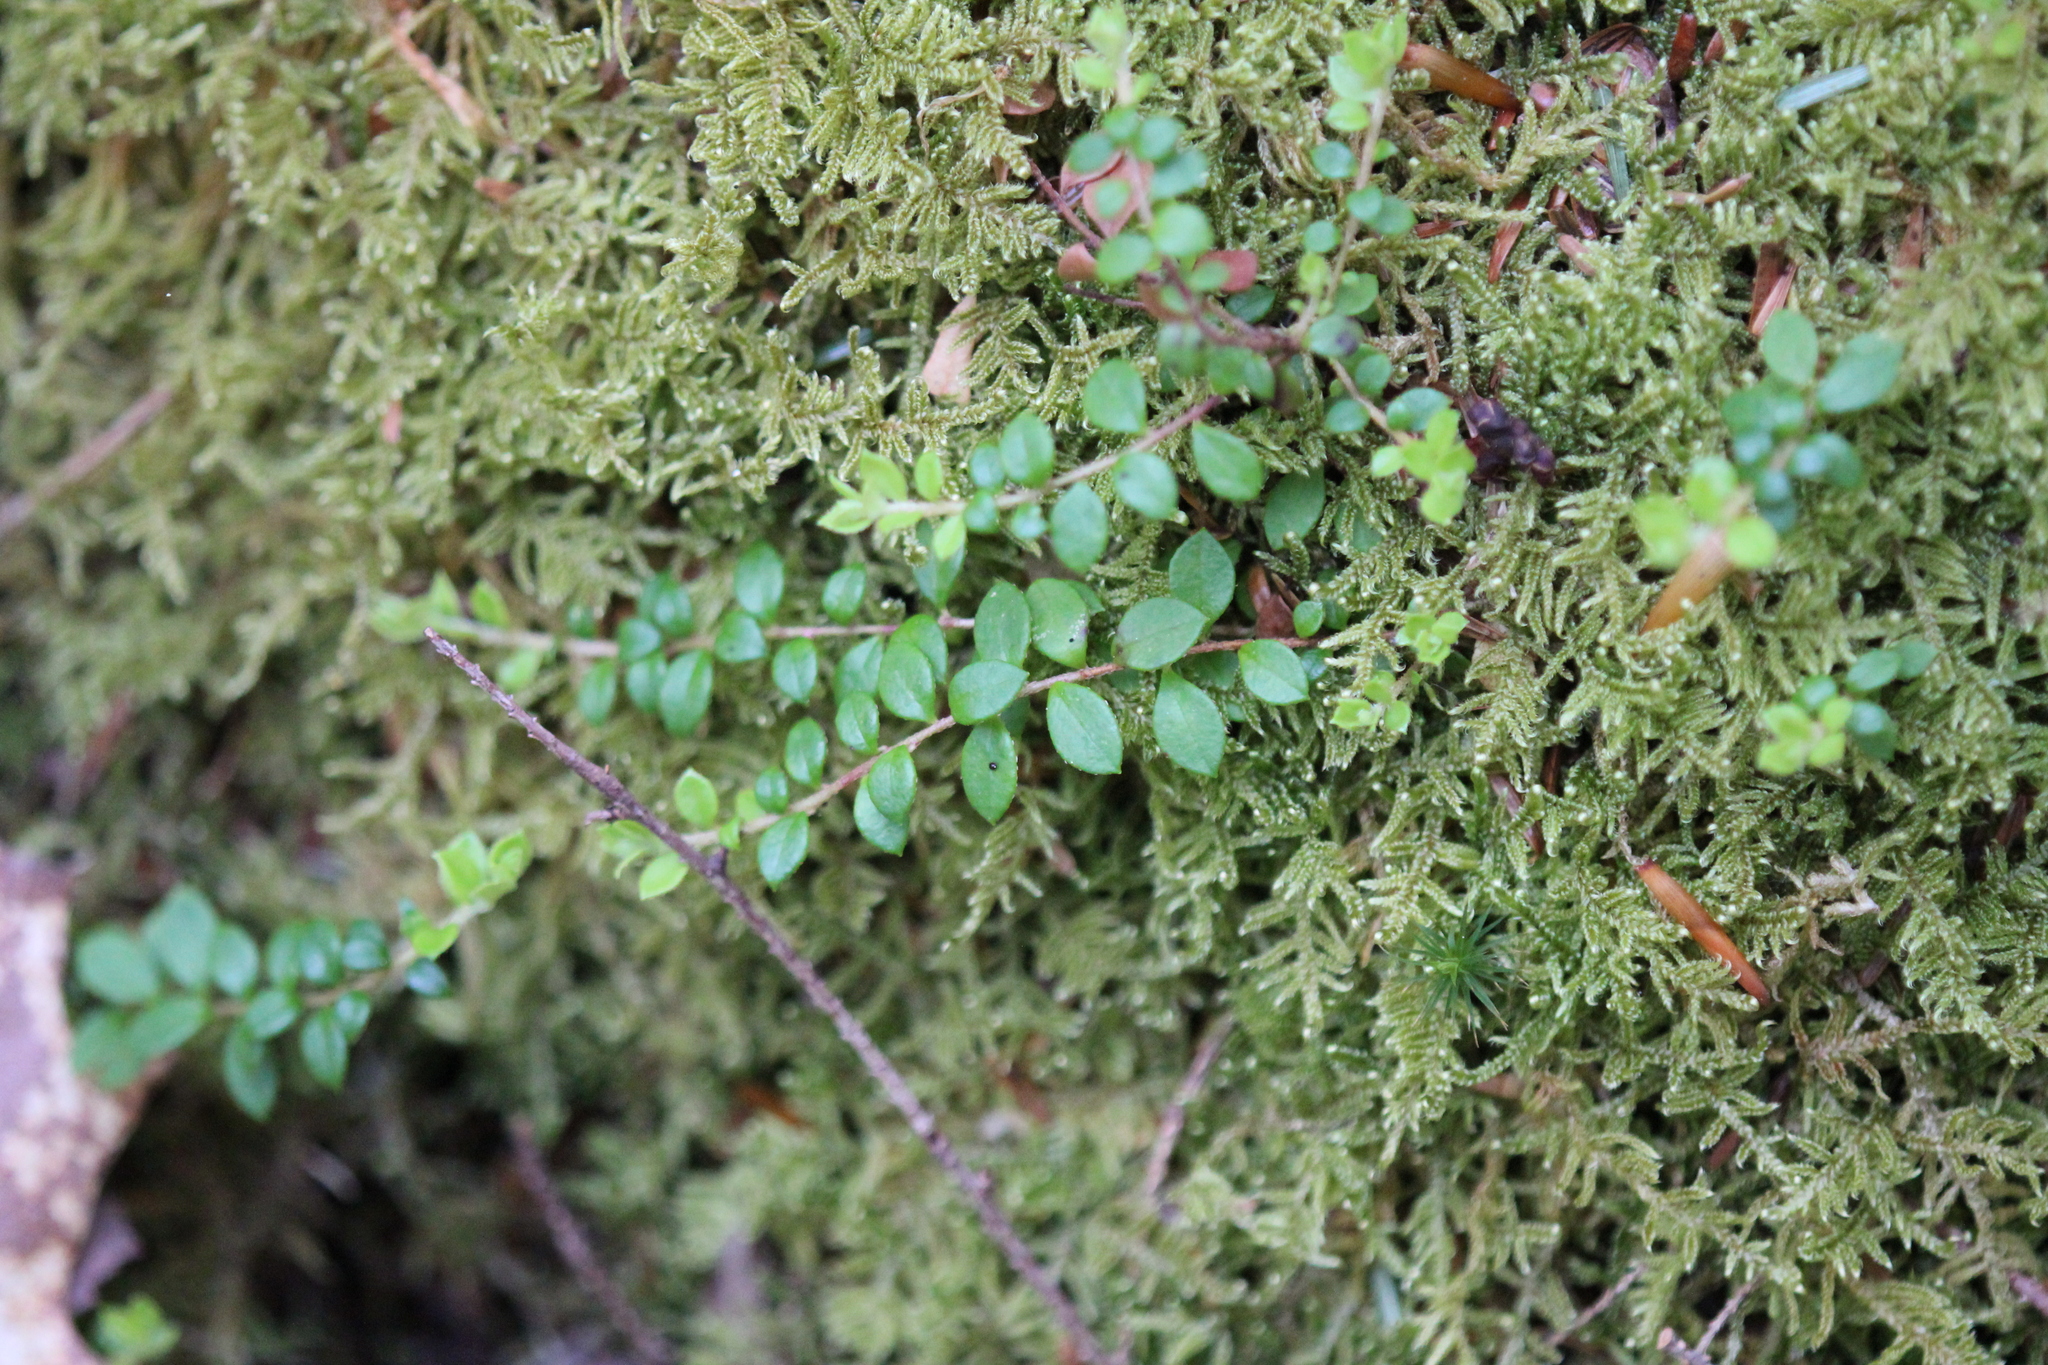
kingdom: Plantae
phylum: Tracheophyta
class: Magnoliopsida
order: Ericales
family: Ericaceae
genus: Gaultheria
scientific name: Gaultheria hispidula
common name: Cancer wintergreen
